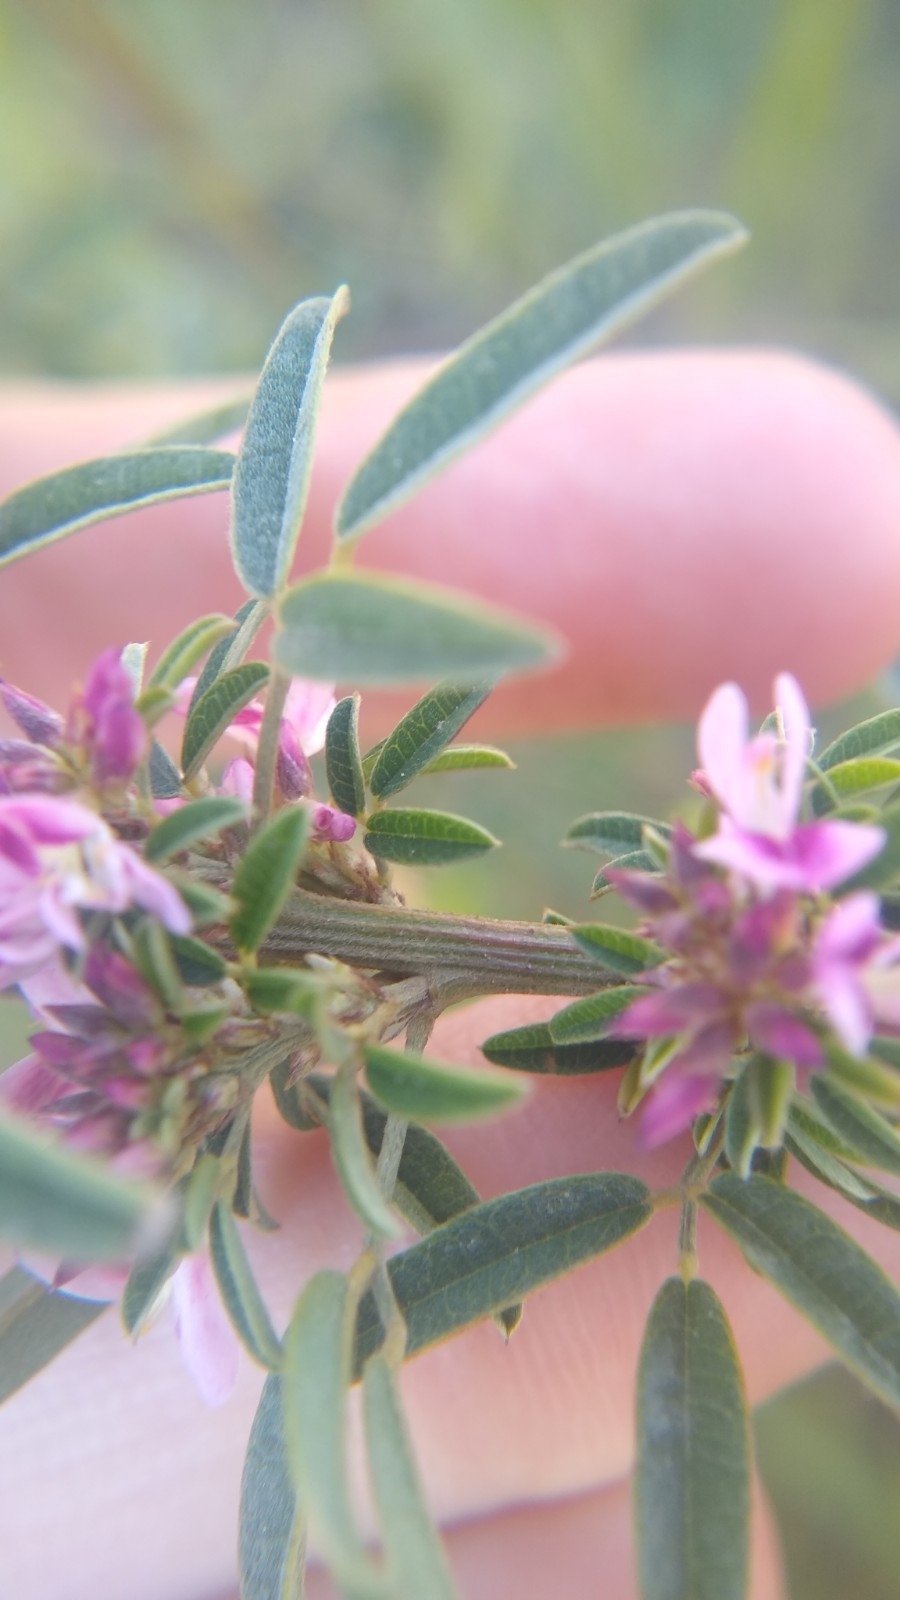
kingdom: Plantae
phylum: Tracheophyta
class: Magnoliopsida
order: Fabales
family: Fabaceae
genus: Lespedeza
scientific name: Lespedeza virginica
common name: Slender bush-clover
